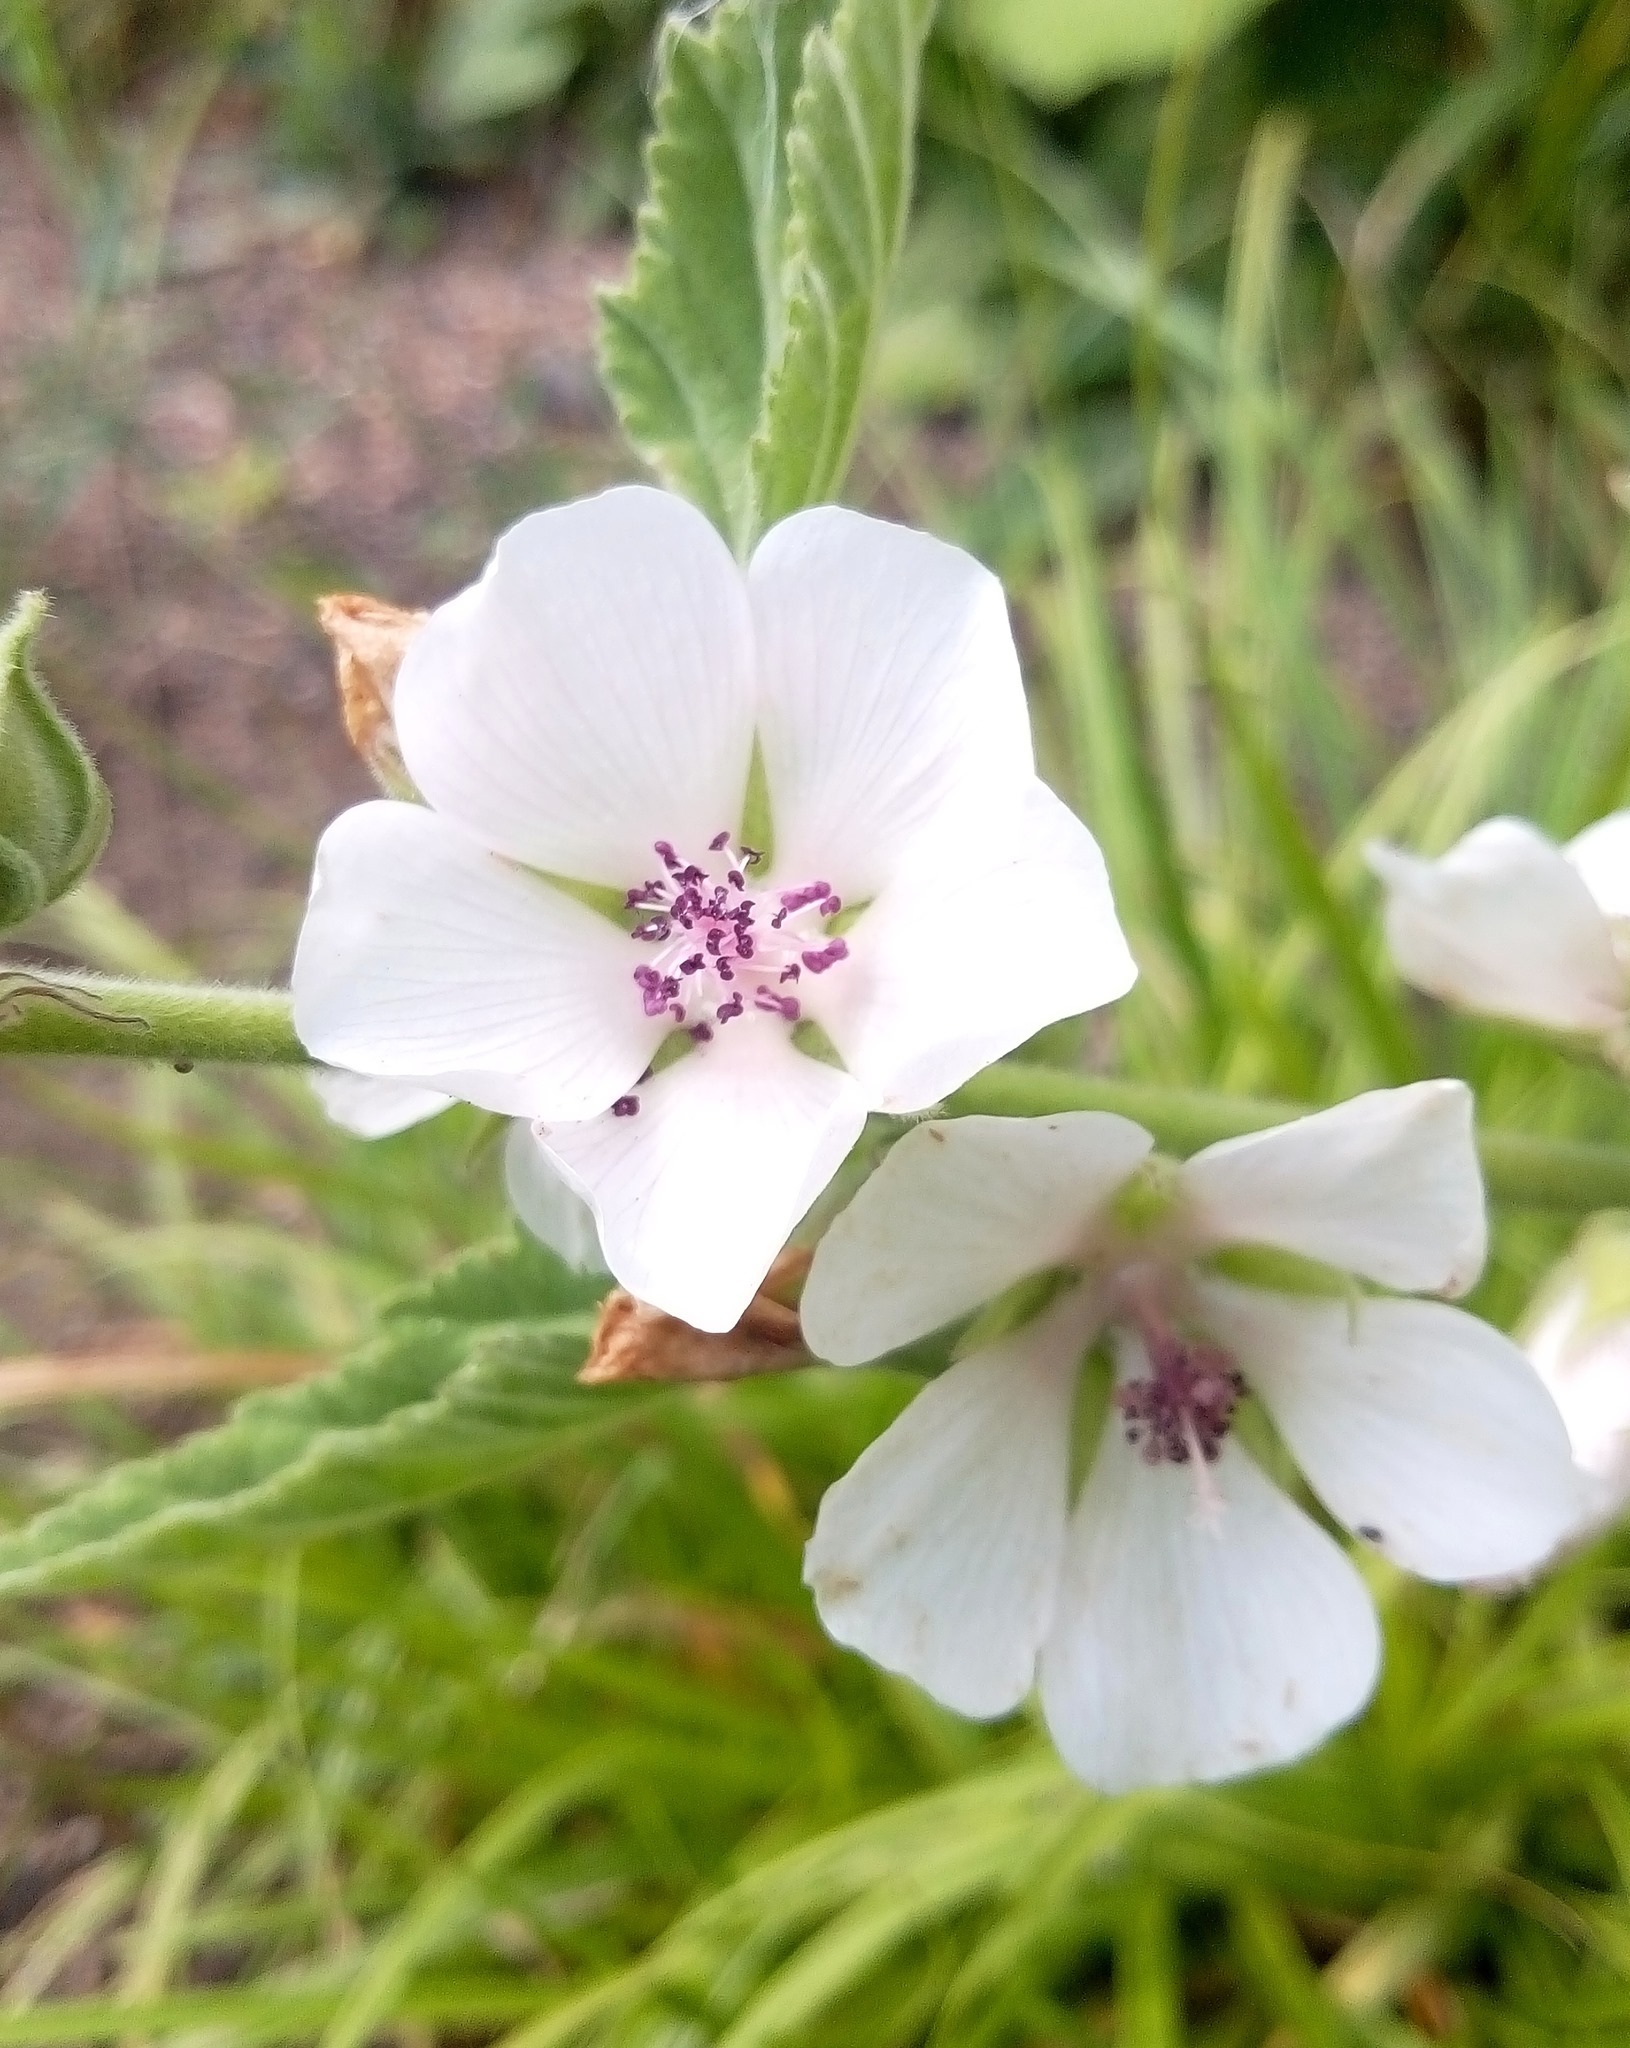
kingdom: Plantae
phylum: Tracheophyta
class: Magnoliopsida
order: Malvales
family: Malvaceae
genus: Althaea
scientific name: Althaea officinalis
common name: Marsh-mallow
